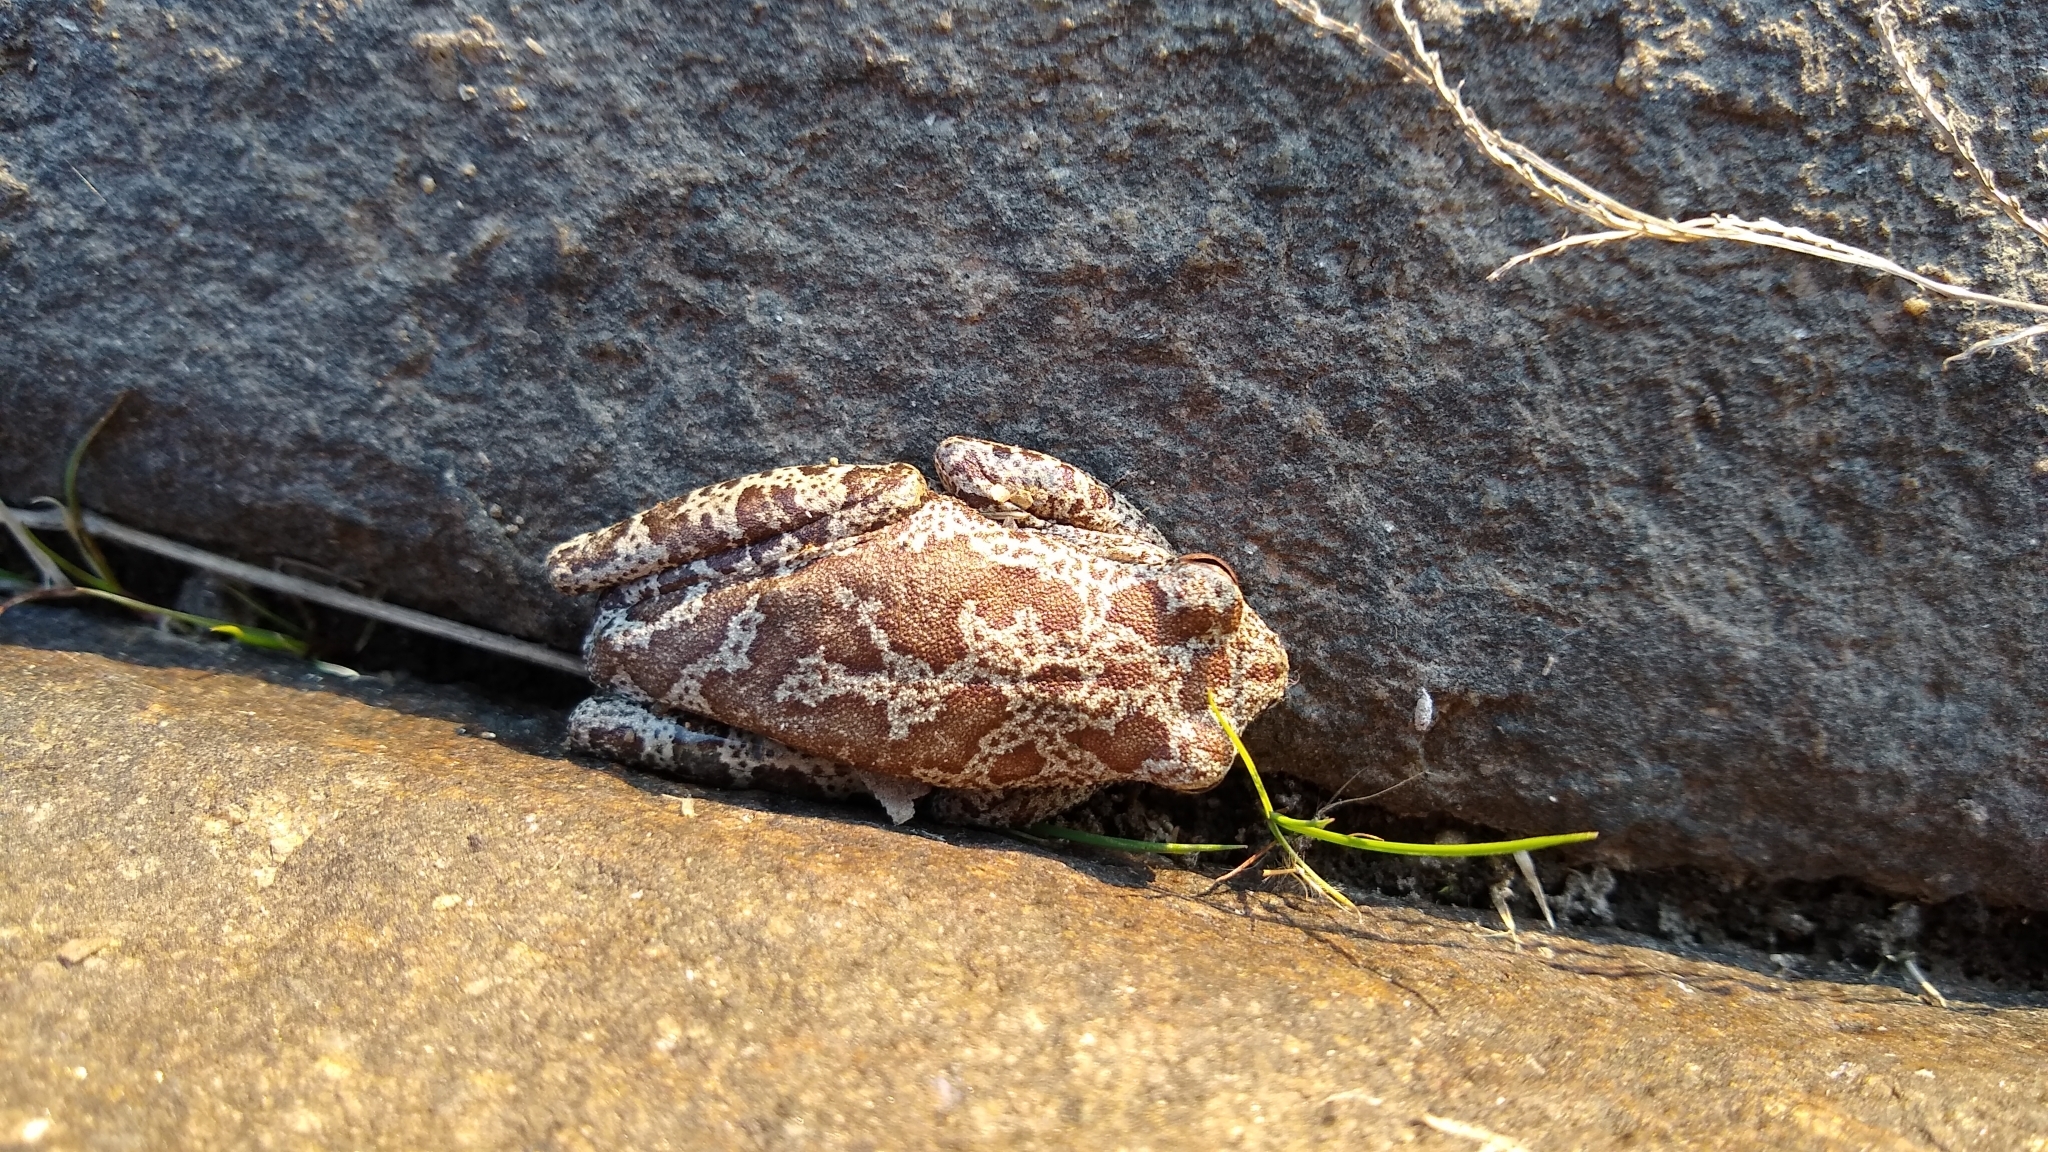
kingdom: Animalia
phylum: Chordata
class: Amphibia
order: Anura
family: Hylidae
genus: Boana
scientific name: Boana cordobae
